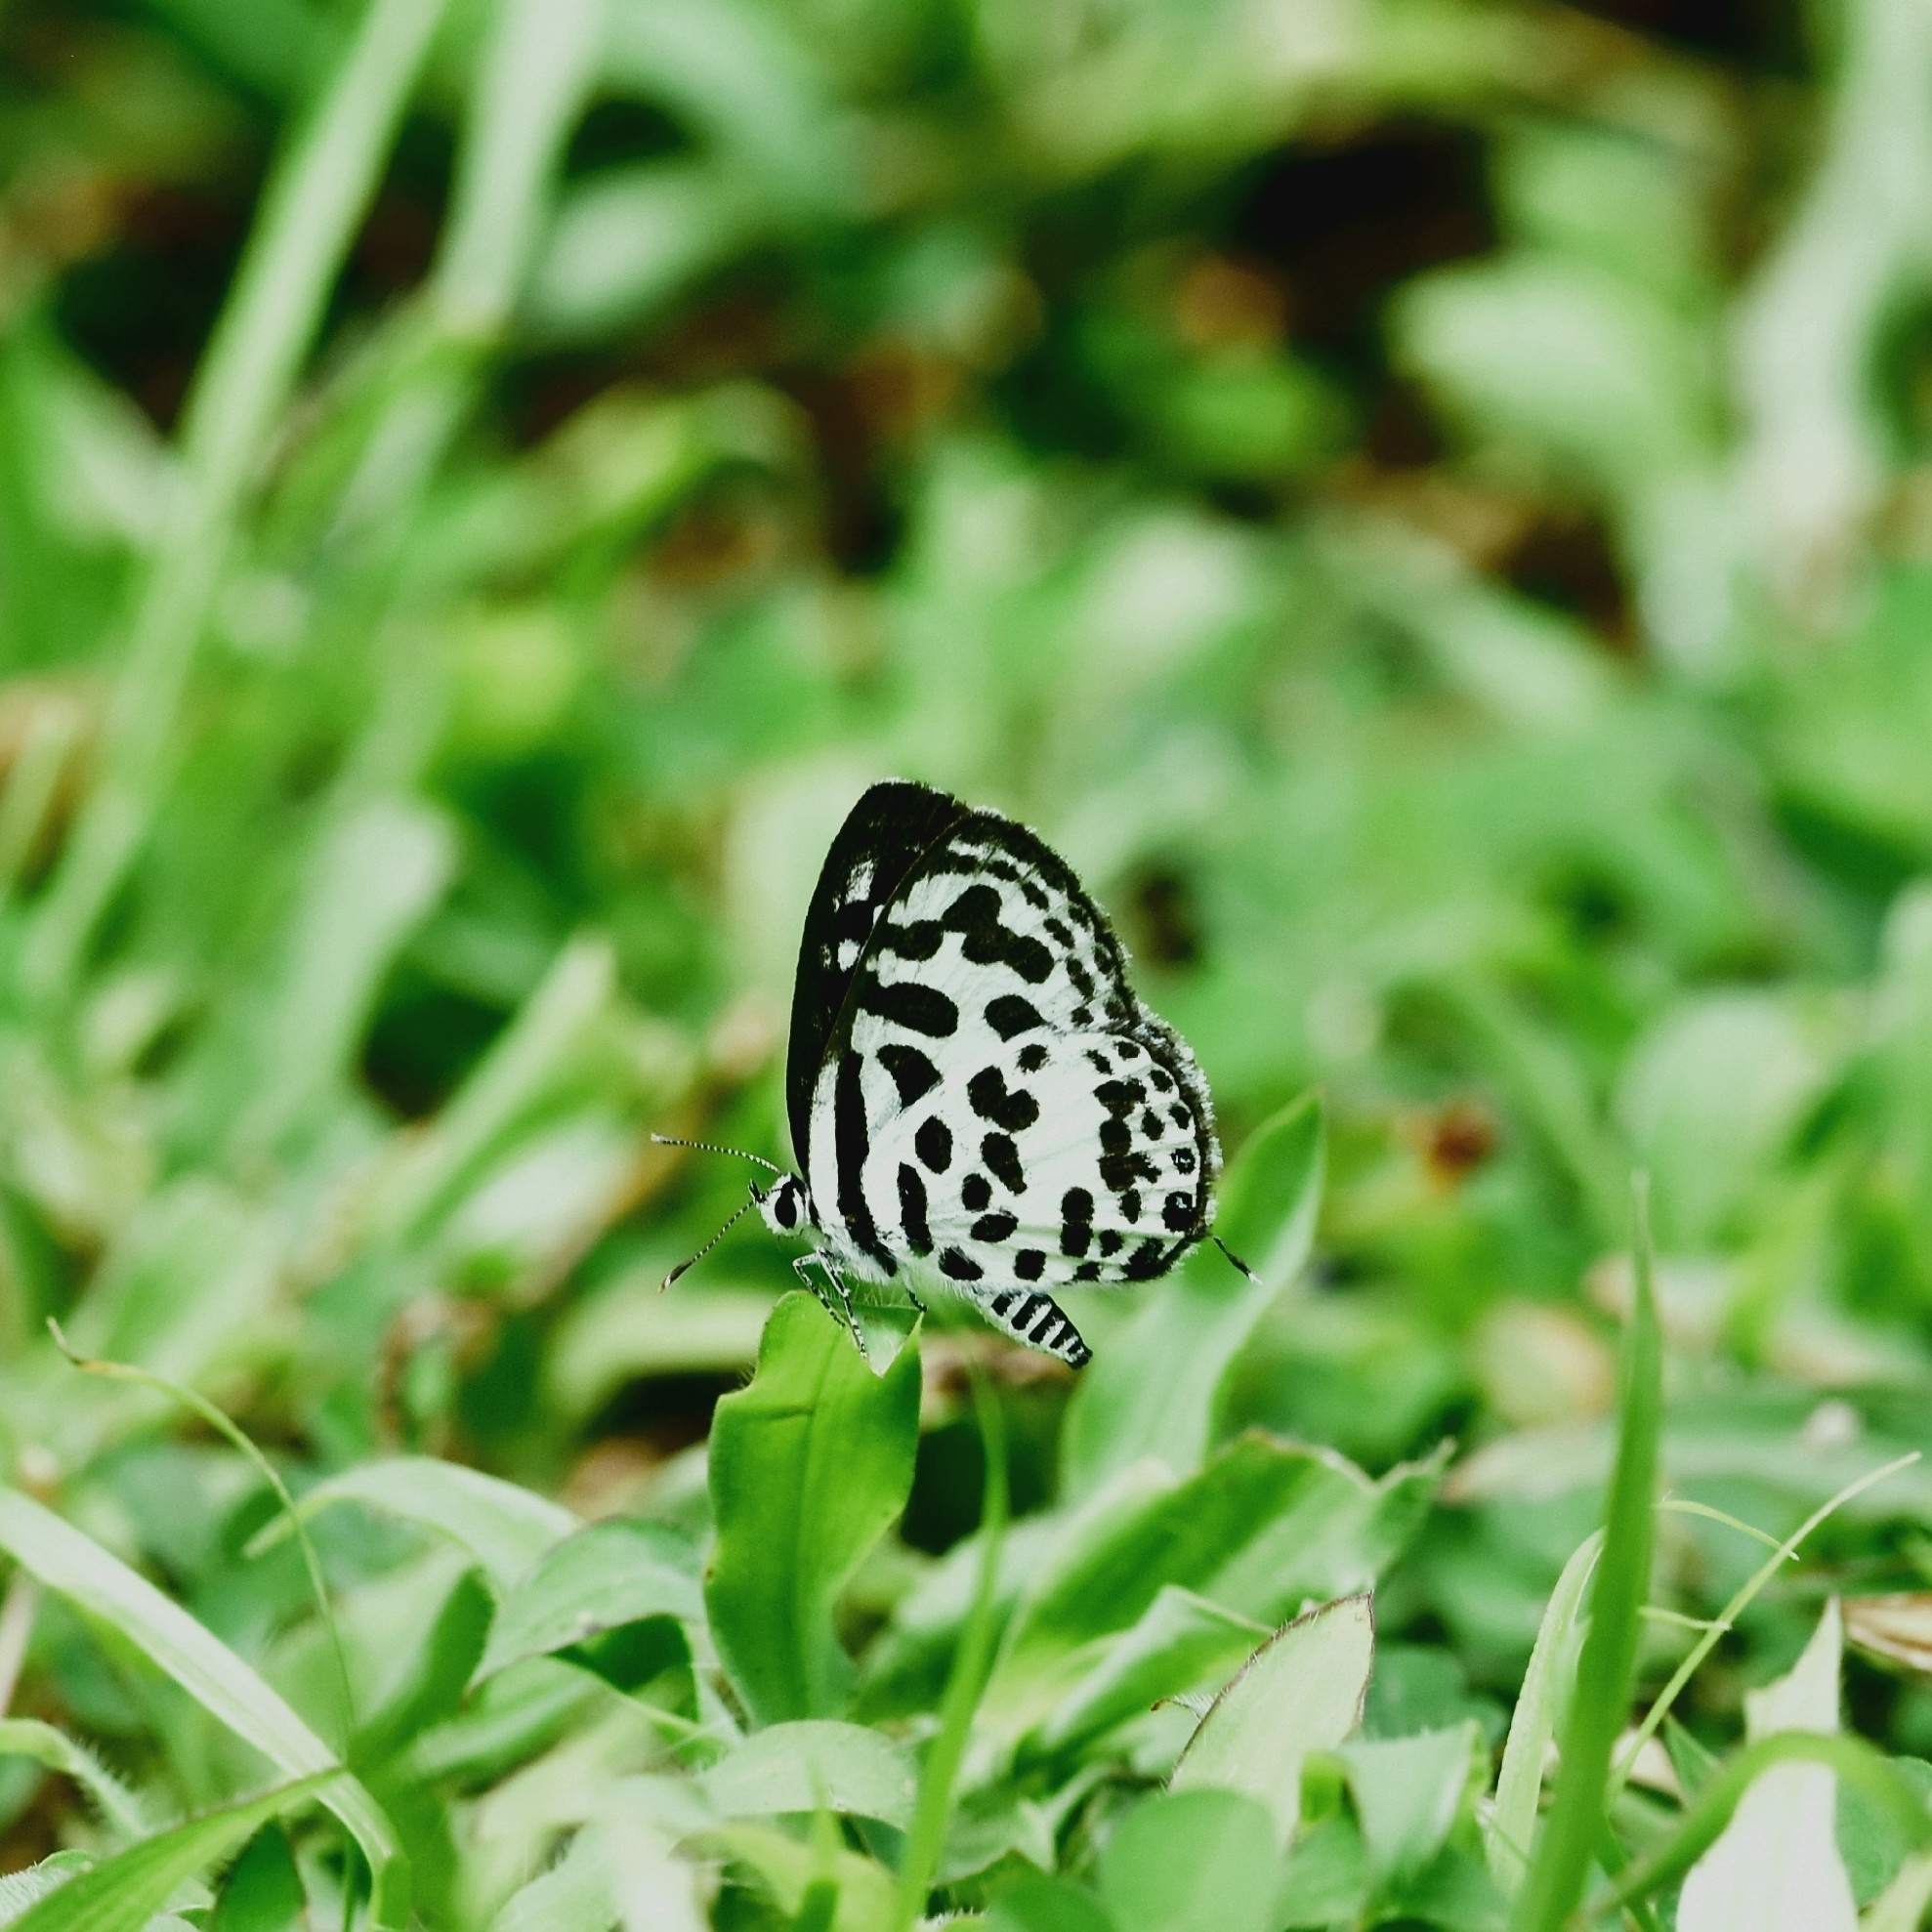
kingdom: Animalia
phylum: Arthropoda
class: Insecta
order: Lepidoptera
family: Lycaenidae
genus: Castalius
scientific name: Castalius rosimon
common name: Common pierrot
